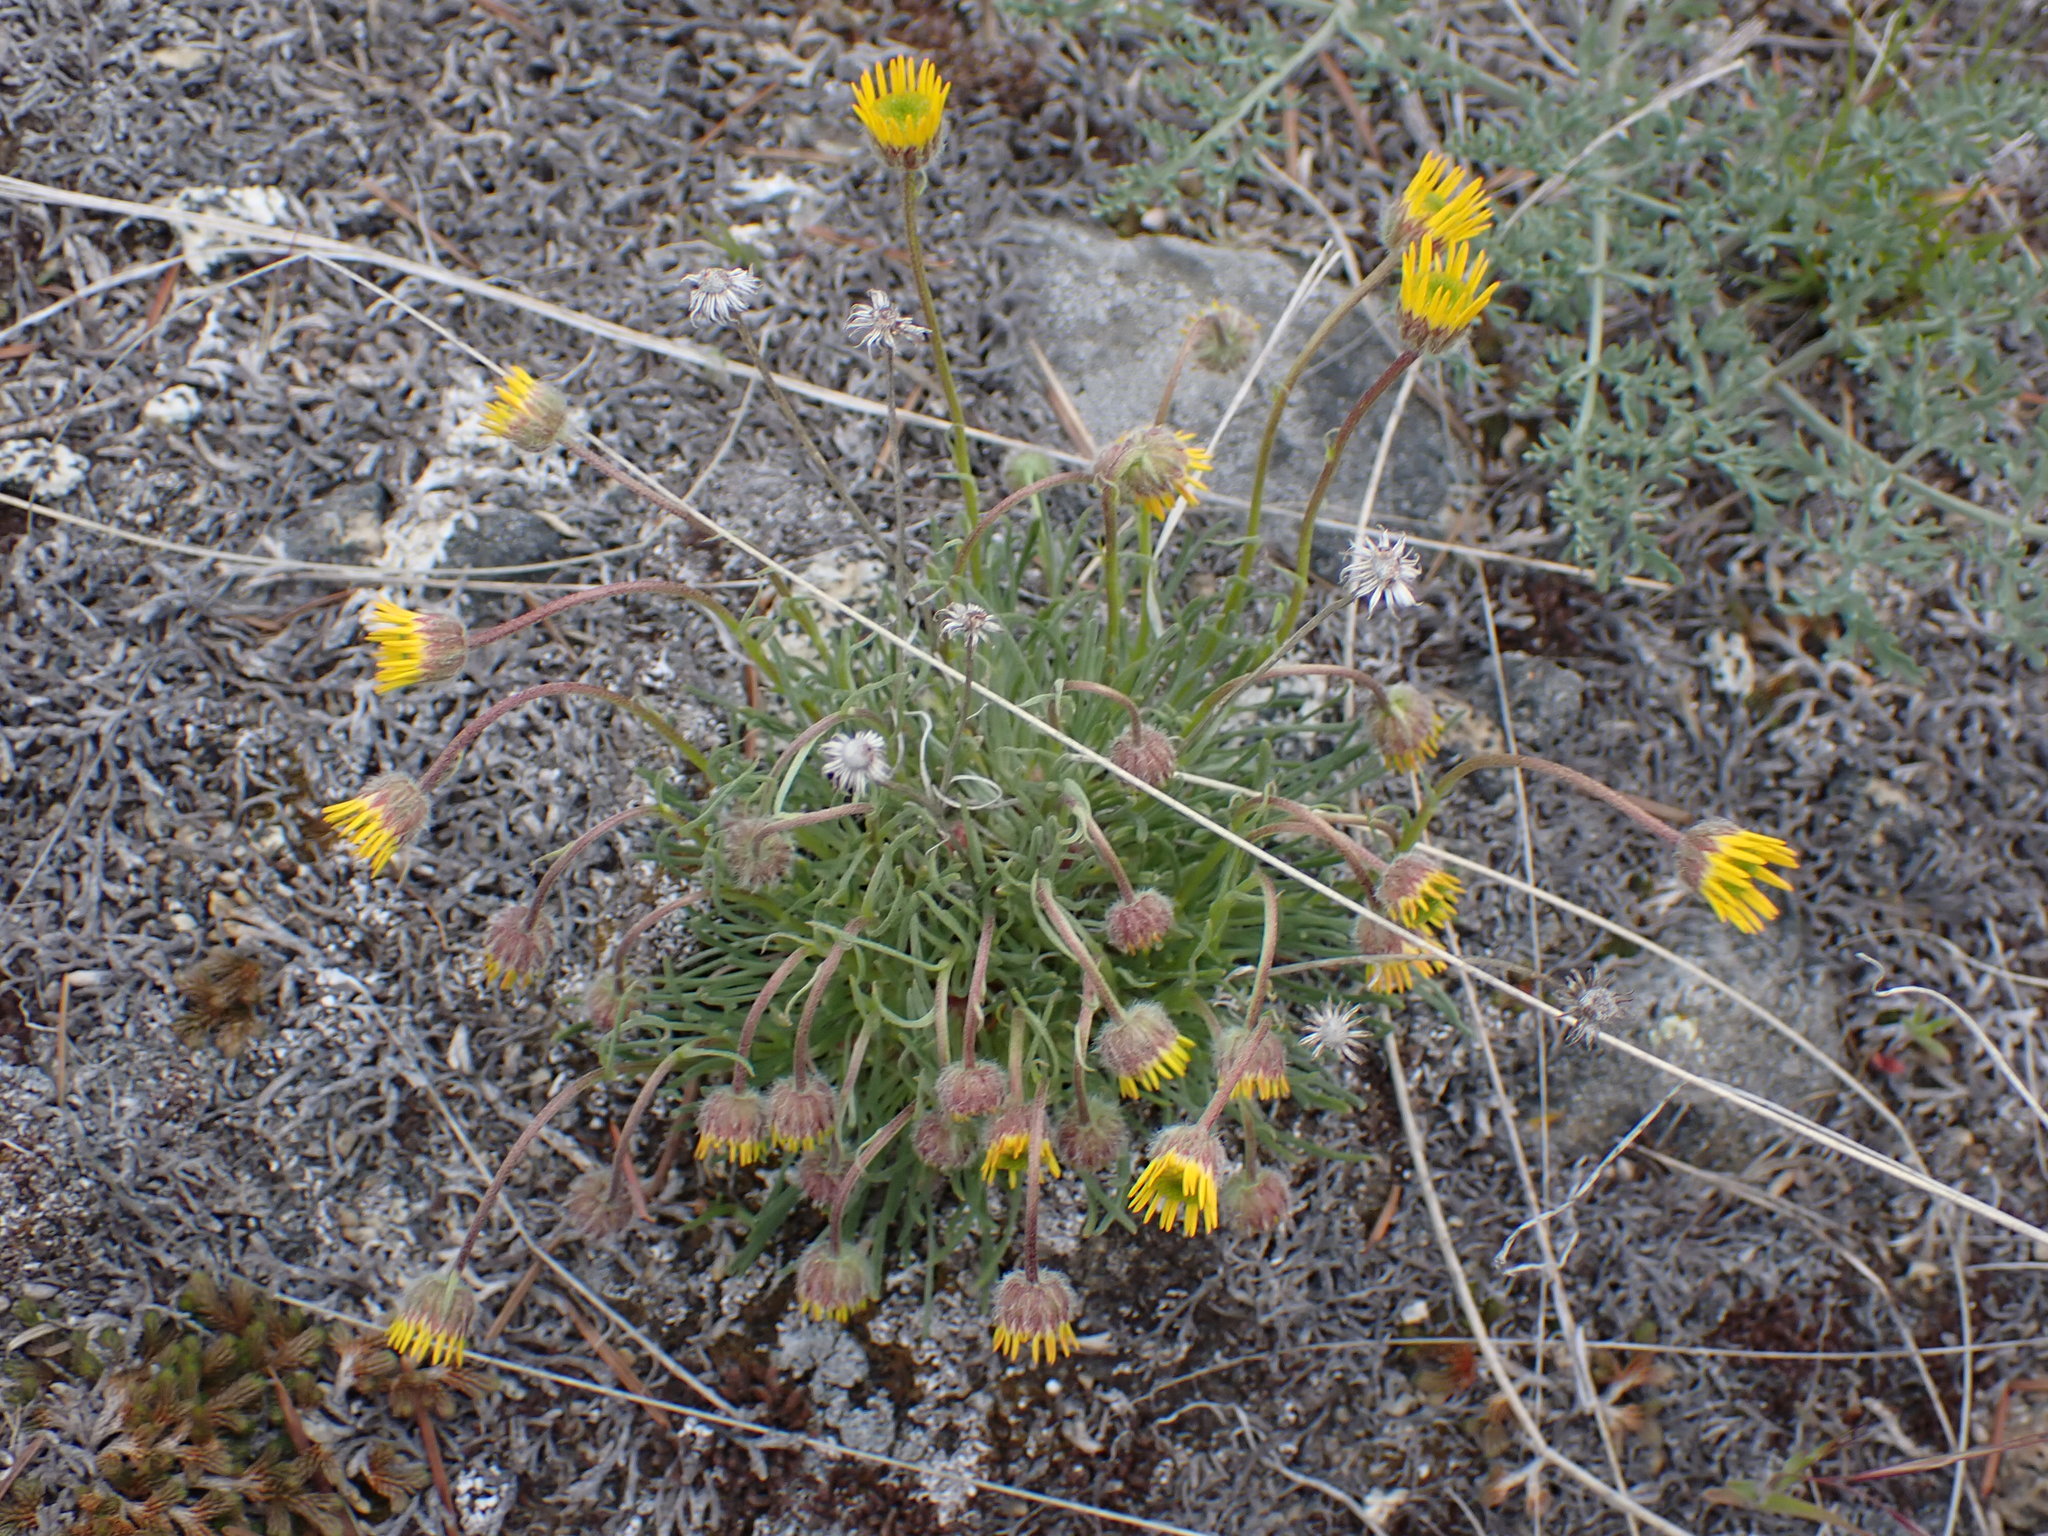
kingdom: Plantae
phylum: Tracheophyta
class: Magnoliopsida
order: Asterales
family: Asteraceae
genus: Erigeron
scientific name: Erigeron linearis
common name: Desert yellow fleabane
